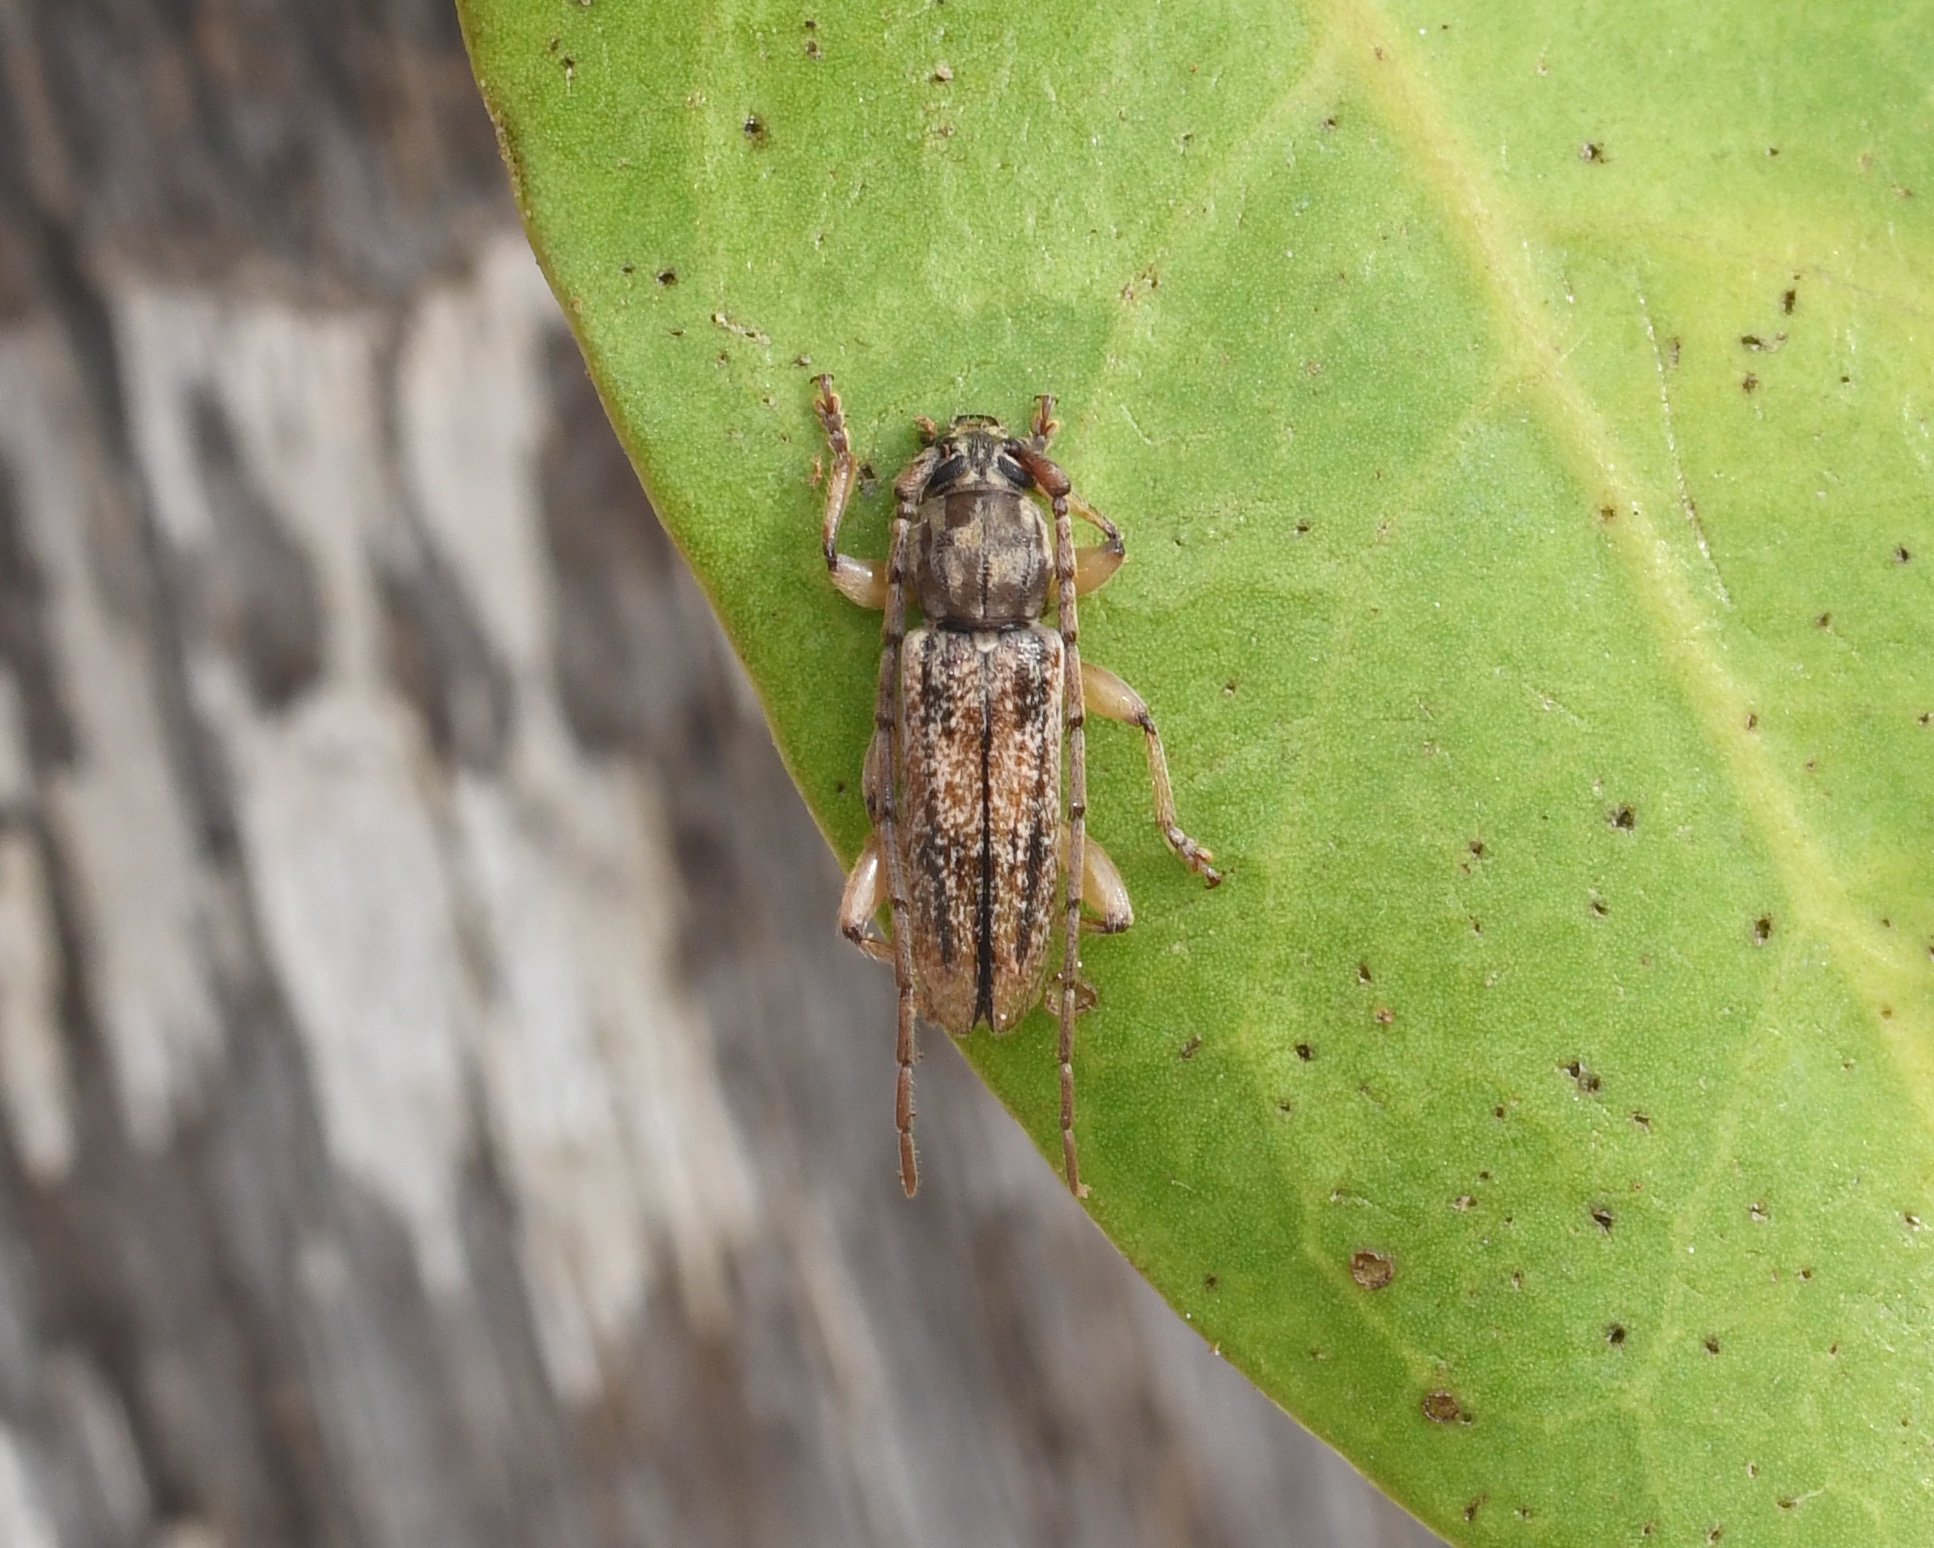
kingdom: Animalia
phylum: Arthropoda
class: Insecta
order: Coleoptera
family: Cerambycidae
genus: Anelaphus
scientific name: Anelaphus cinereus
